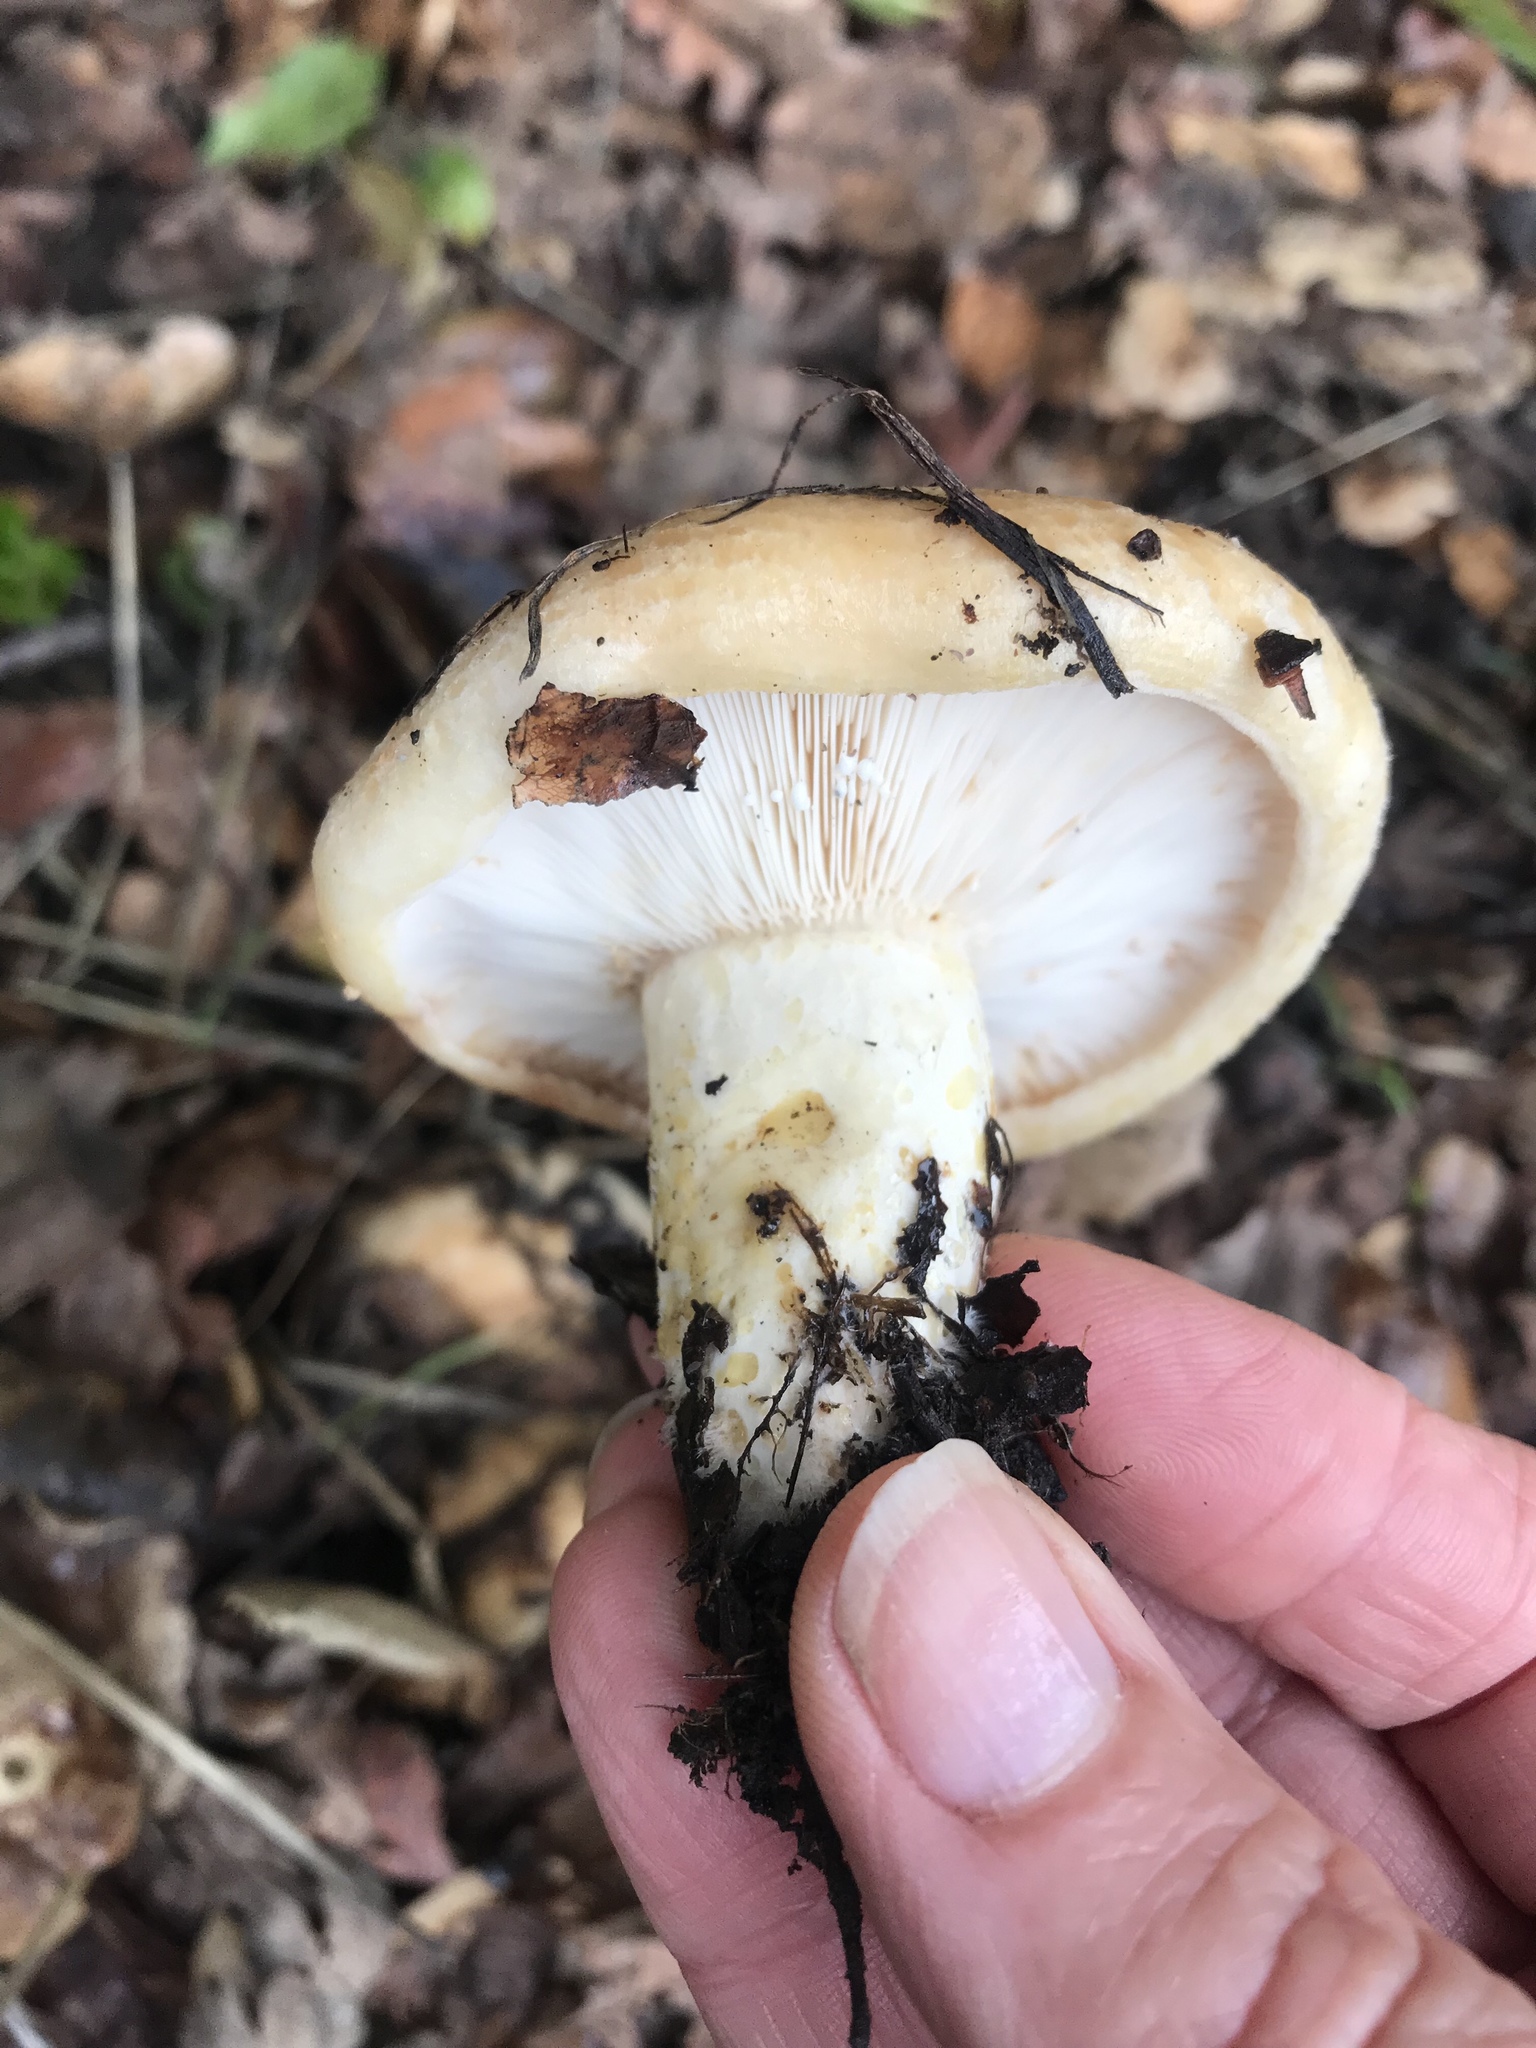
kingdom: Fungi
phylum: Basidiomycota
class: Agaricomycetes
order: Russulales
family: Russulaceae
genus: Lactarius
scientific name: Lactarius alnicola
